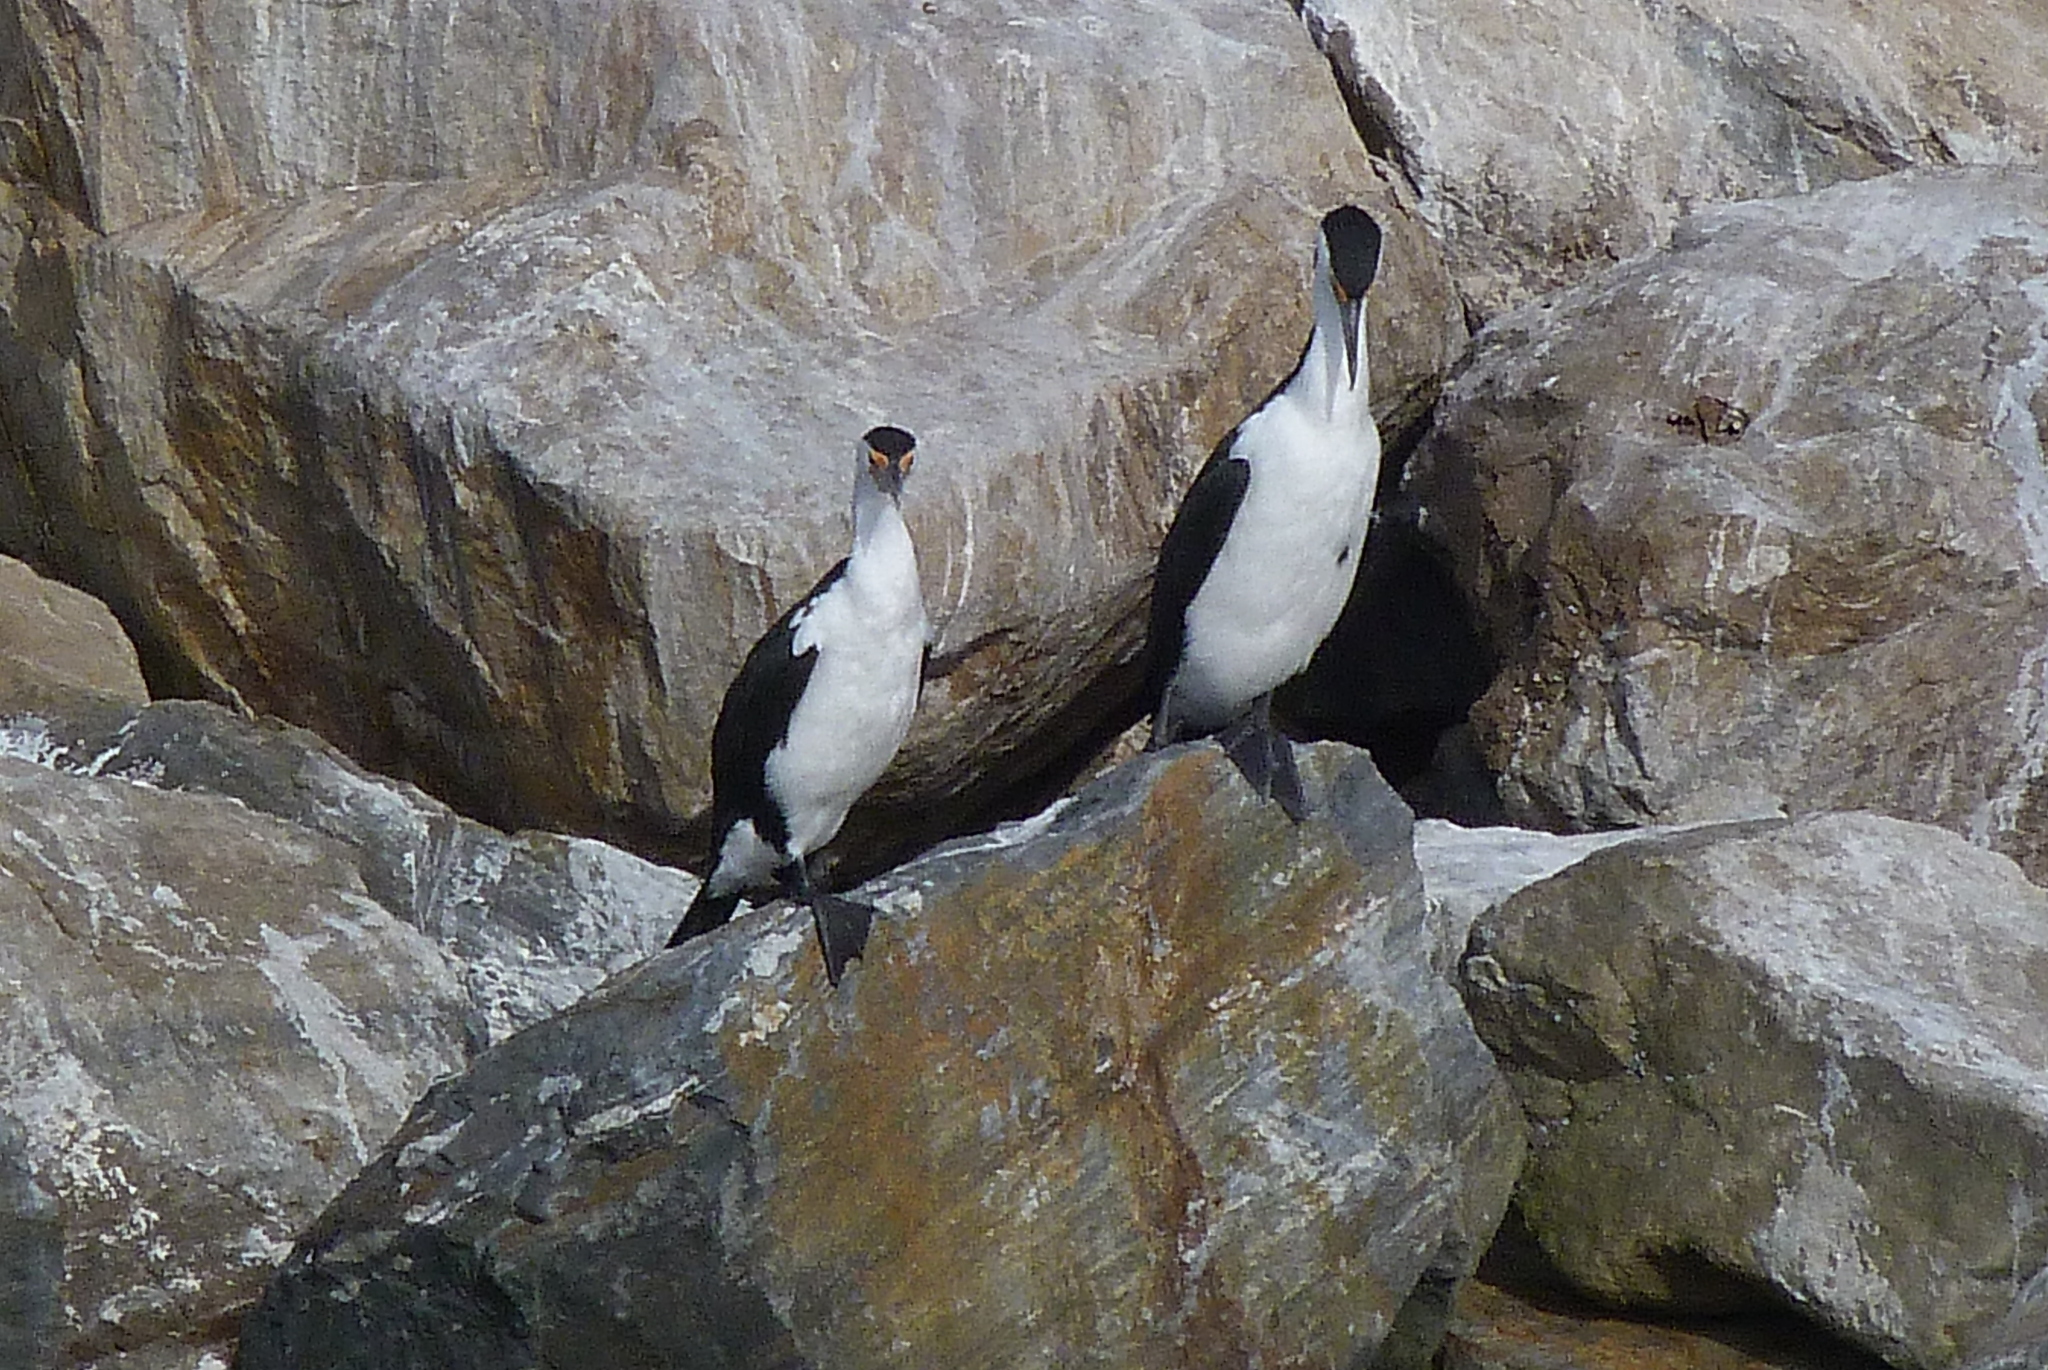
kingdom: Animalia
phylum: Chordata
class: Aves
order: Suliformes
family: Phalacrocoracidae
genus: Phalacrocorax
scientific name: Phalacrocorax varius
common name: Pied cormorant
